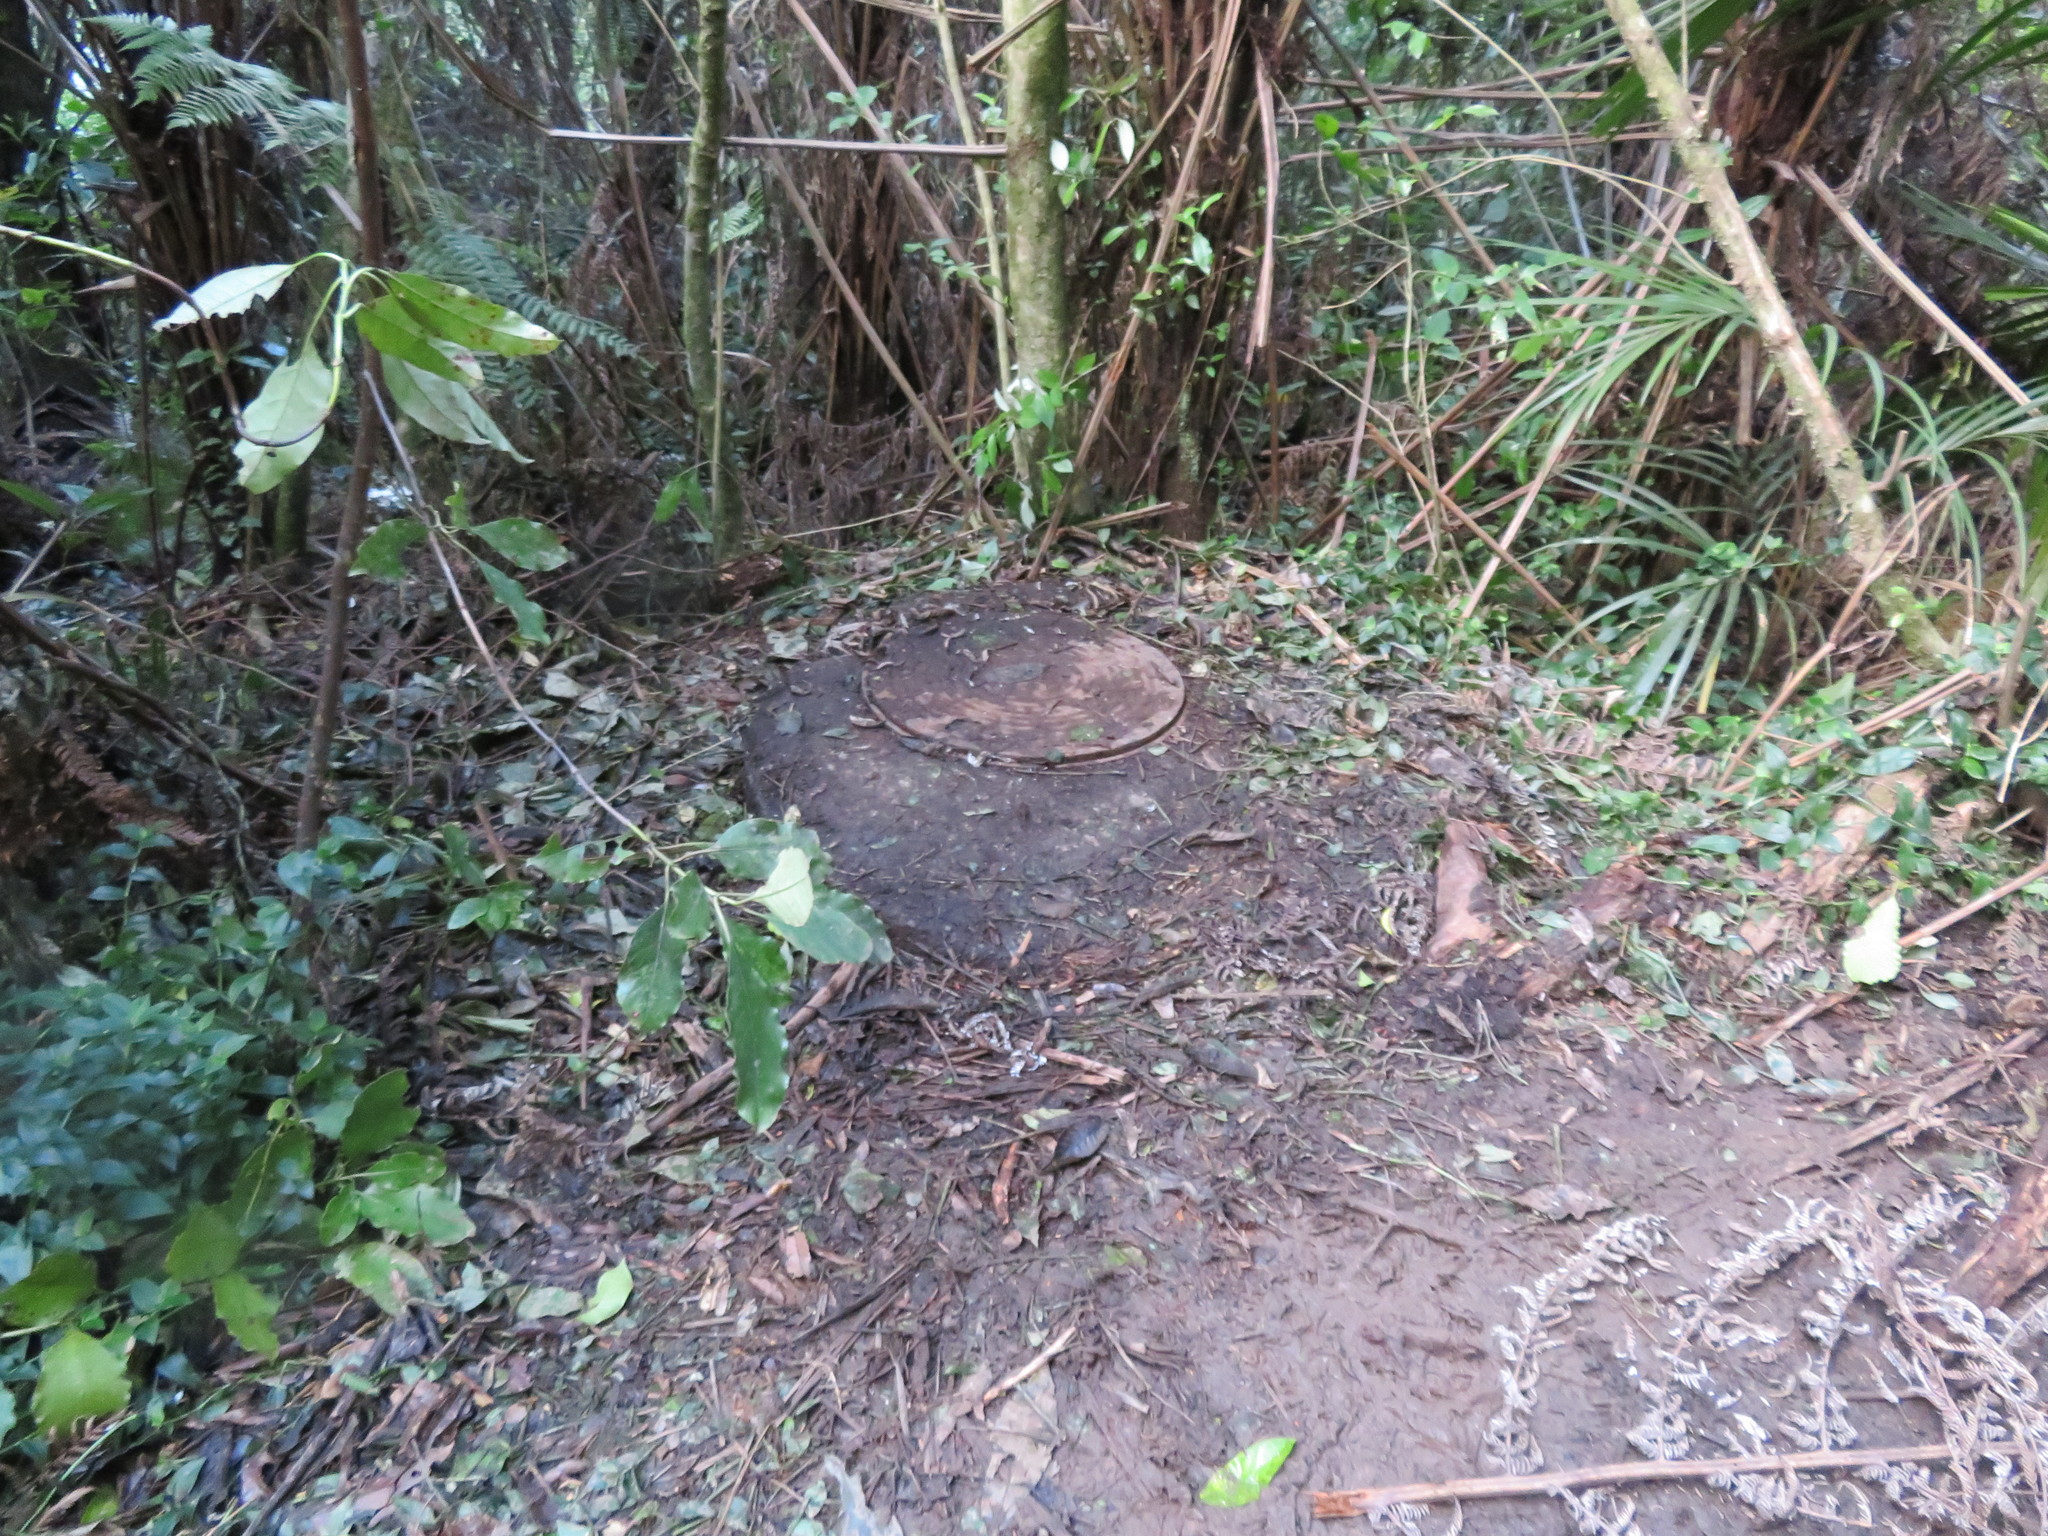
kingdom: Plantae
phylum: Tracheophyta
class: Magnoliopsida
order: Gentianales
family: Loganiaceae
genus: Geniostoma
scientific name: Geniostoma ligustrifolium
